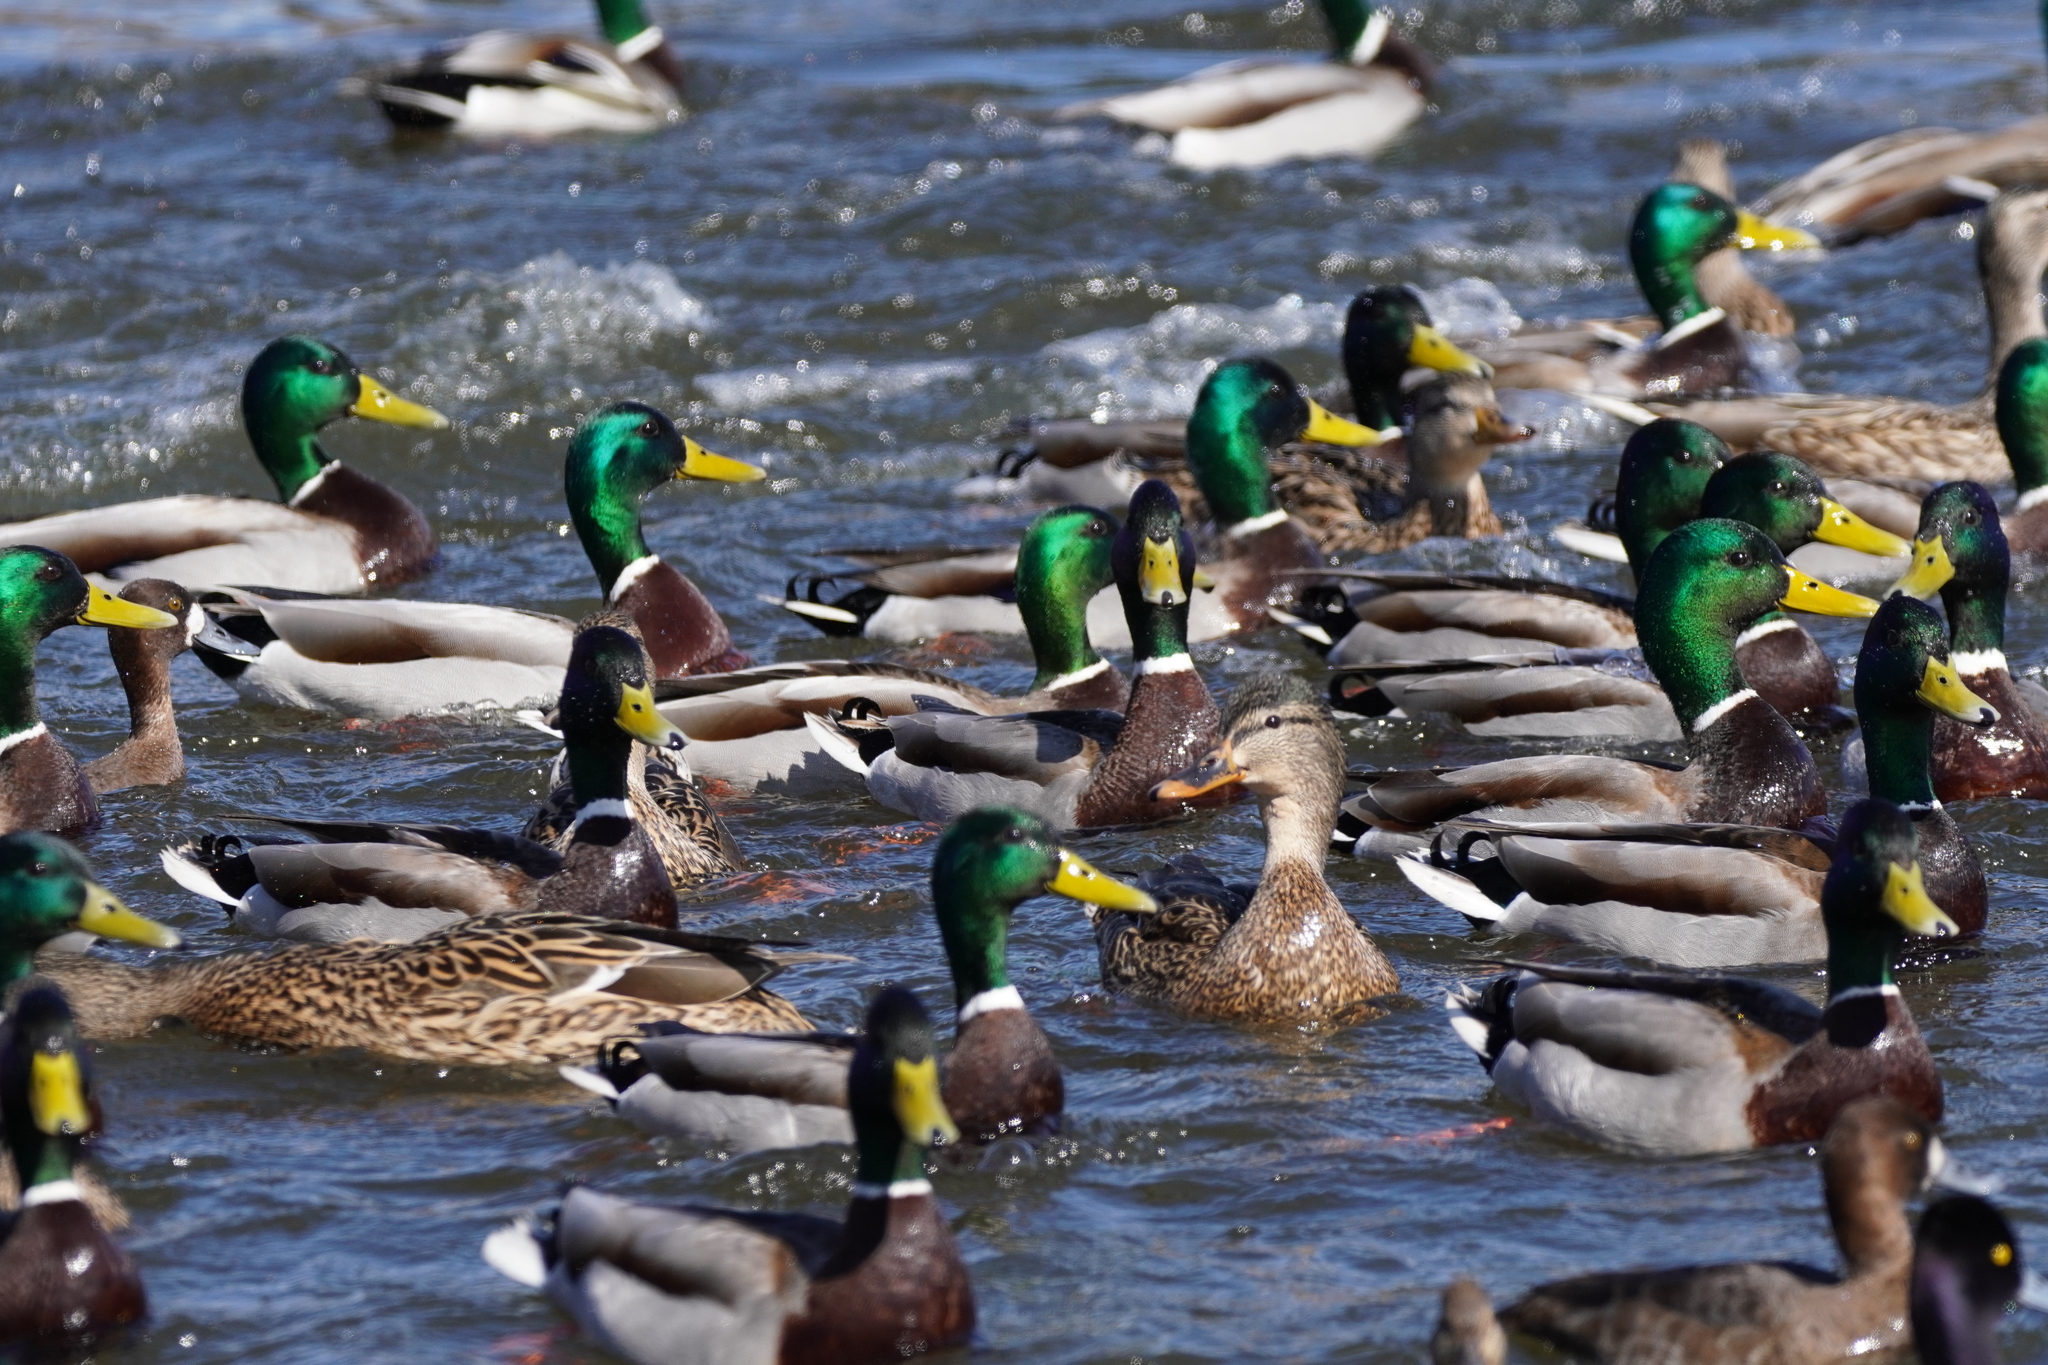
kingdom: Animalia
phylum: Chordata
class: Aves
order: Anseriformes
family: Anatidae
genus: Anas
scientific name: Anas platyrhynchos
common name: Mallard
